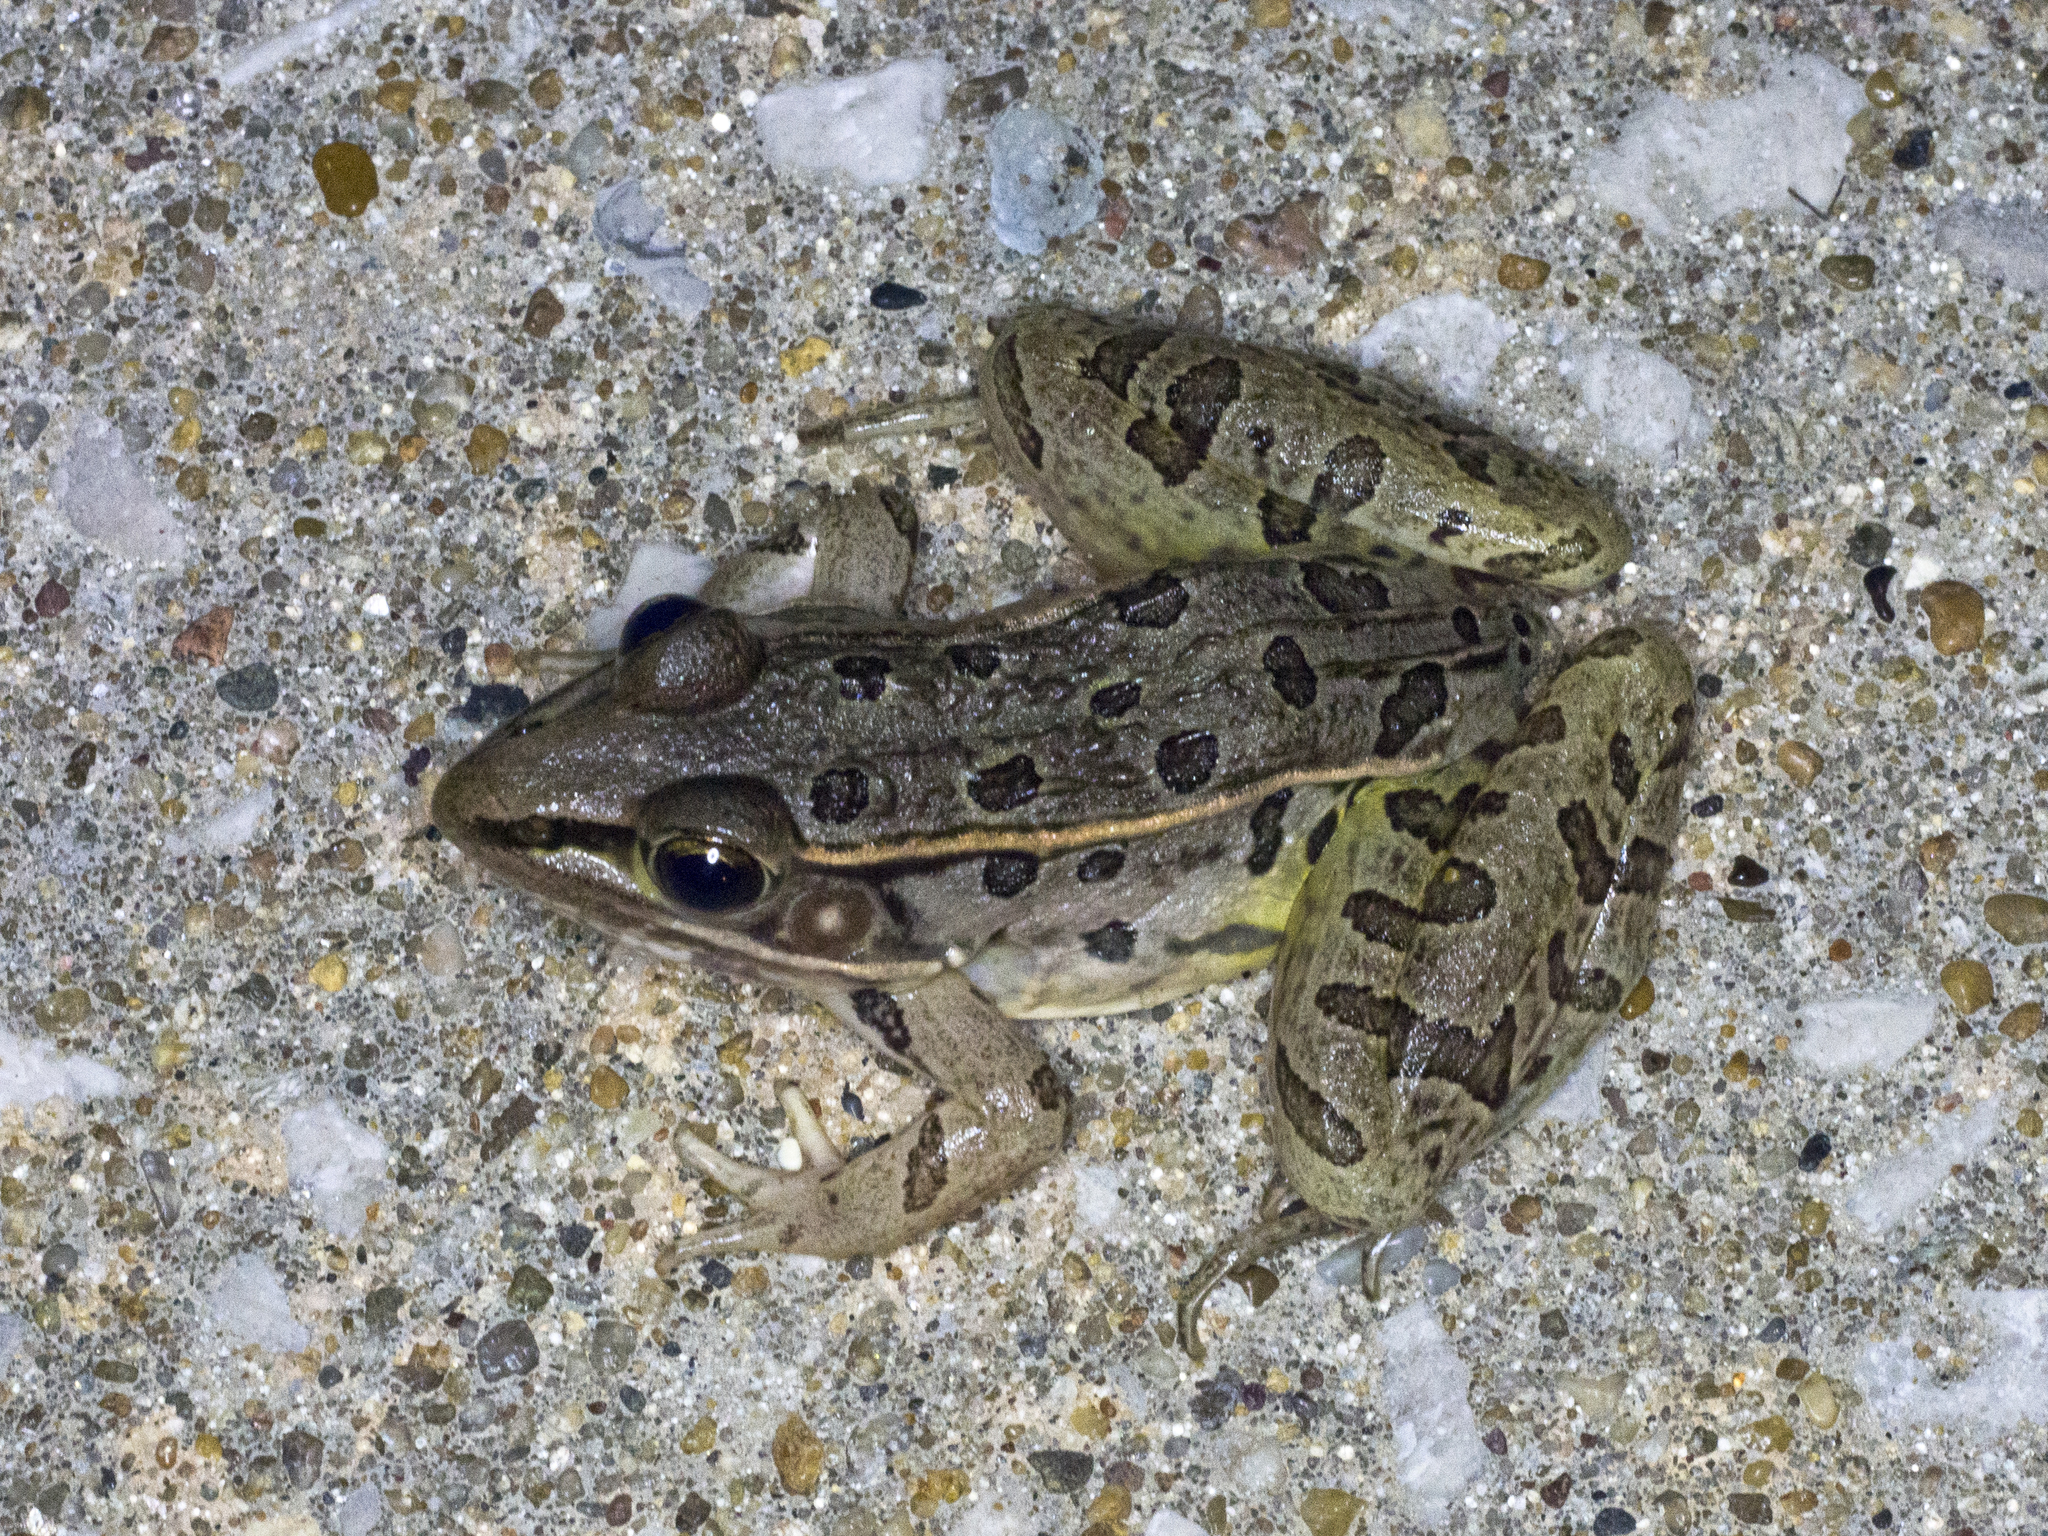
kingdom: Animalia
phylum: Chordata
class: Amphibia
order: Anura
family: Ranidae
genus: Lithobates
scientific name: Lithobates sphenocephalus
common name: Southern leopard frog
